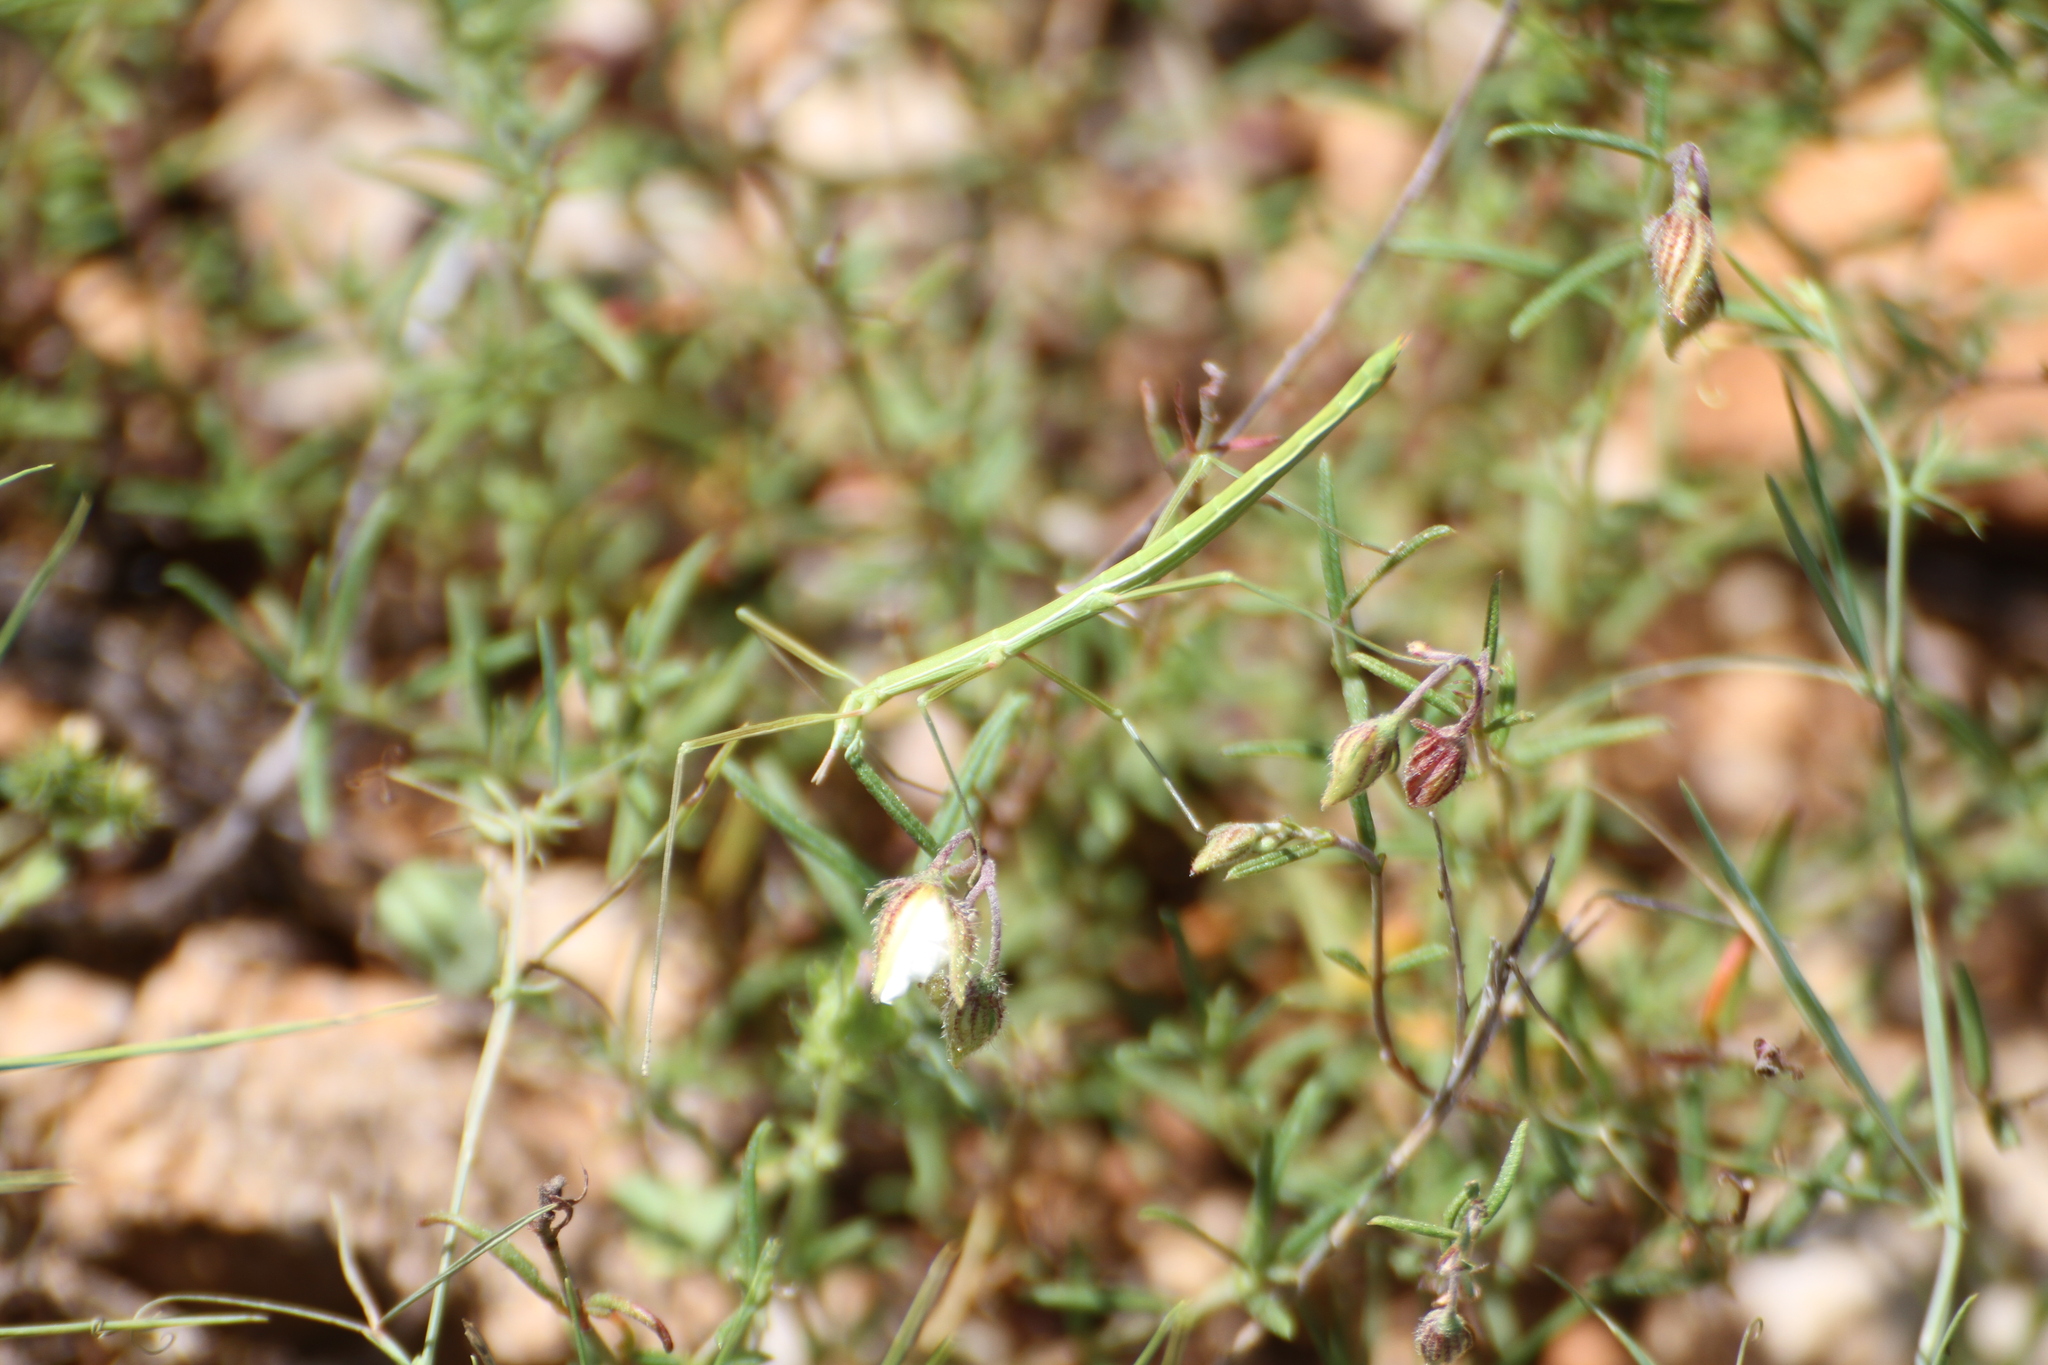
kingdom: Animalia
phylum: Arthropoda
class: Insecta
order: Phasmida
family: Bacillidae
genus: Pijnackeria
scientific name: Pijnackeria masettii
